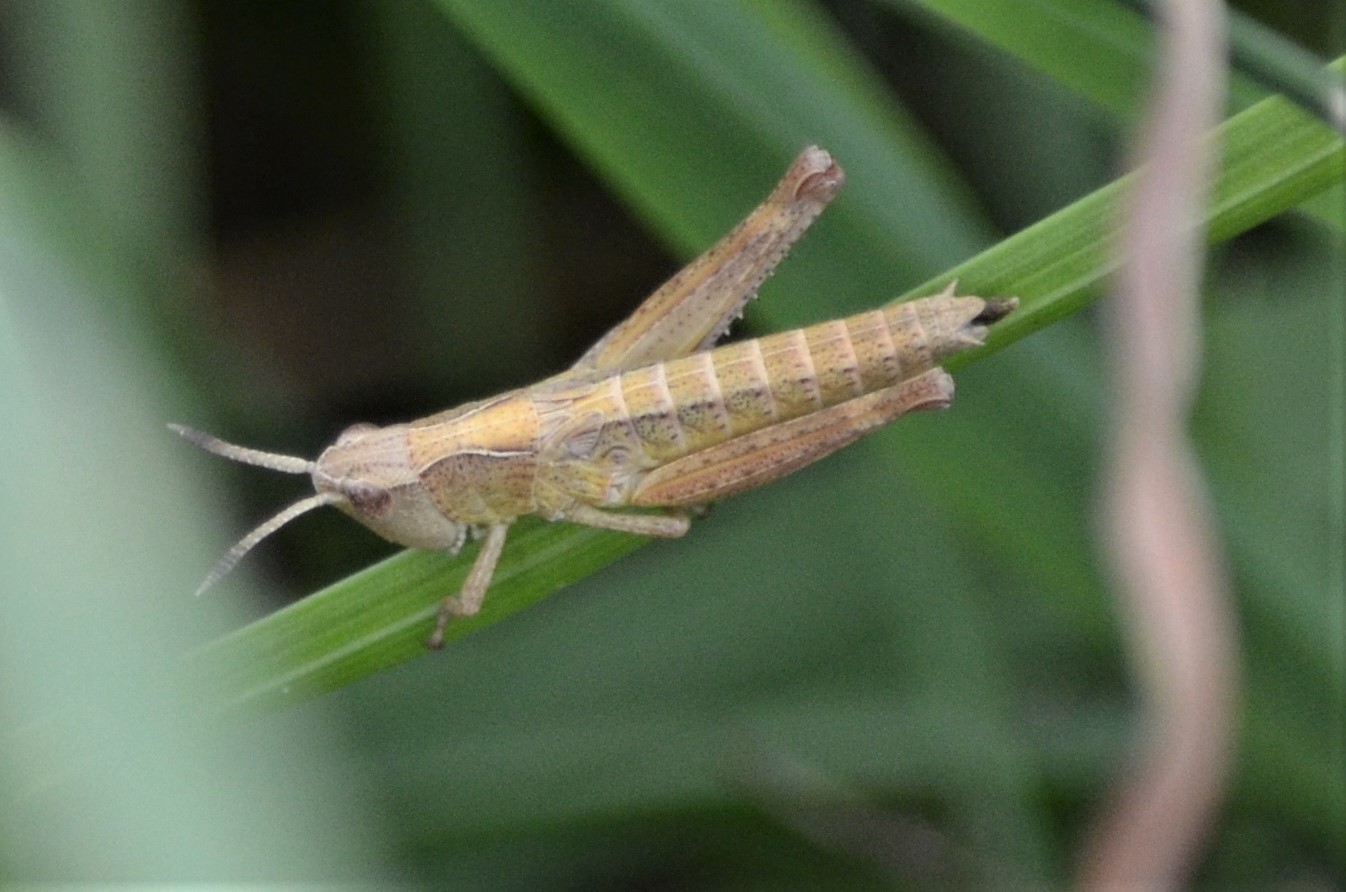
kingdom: Animalia
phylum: Arthropoda
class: Insecta
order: Orthoptera
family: Acrididae
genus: Gomphocerippus
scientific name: Gomphocerippus rufus
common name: Rufous grasshopper
